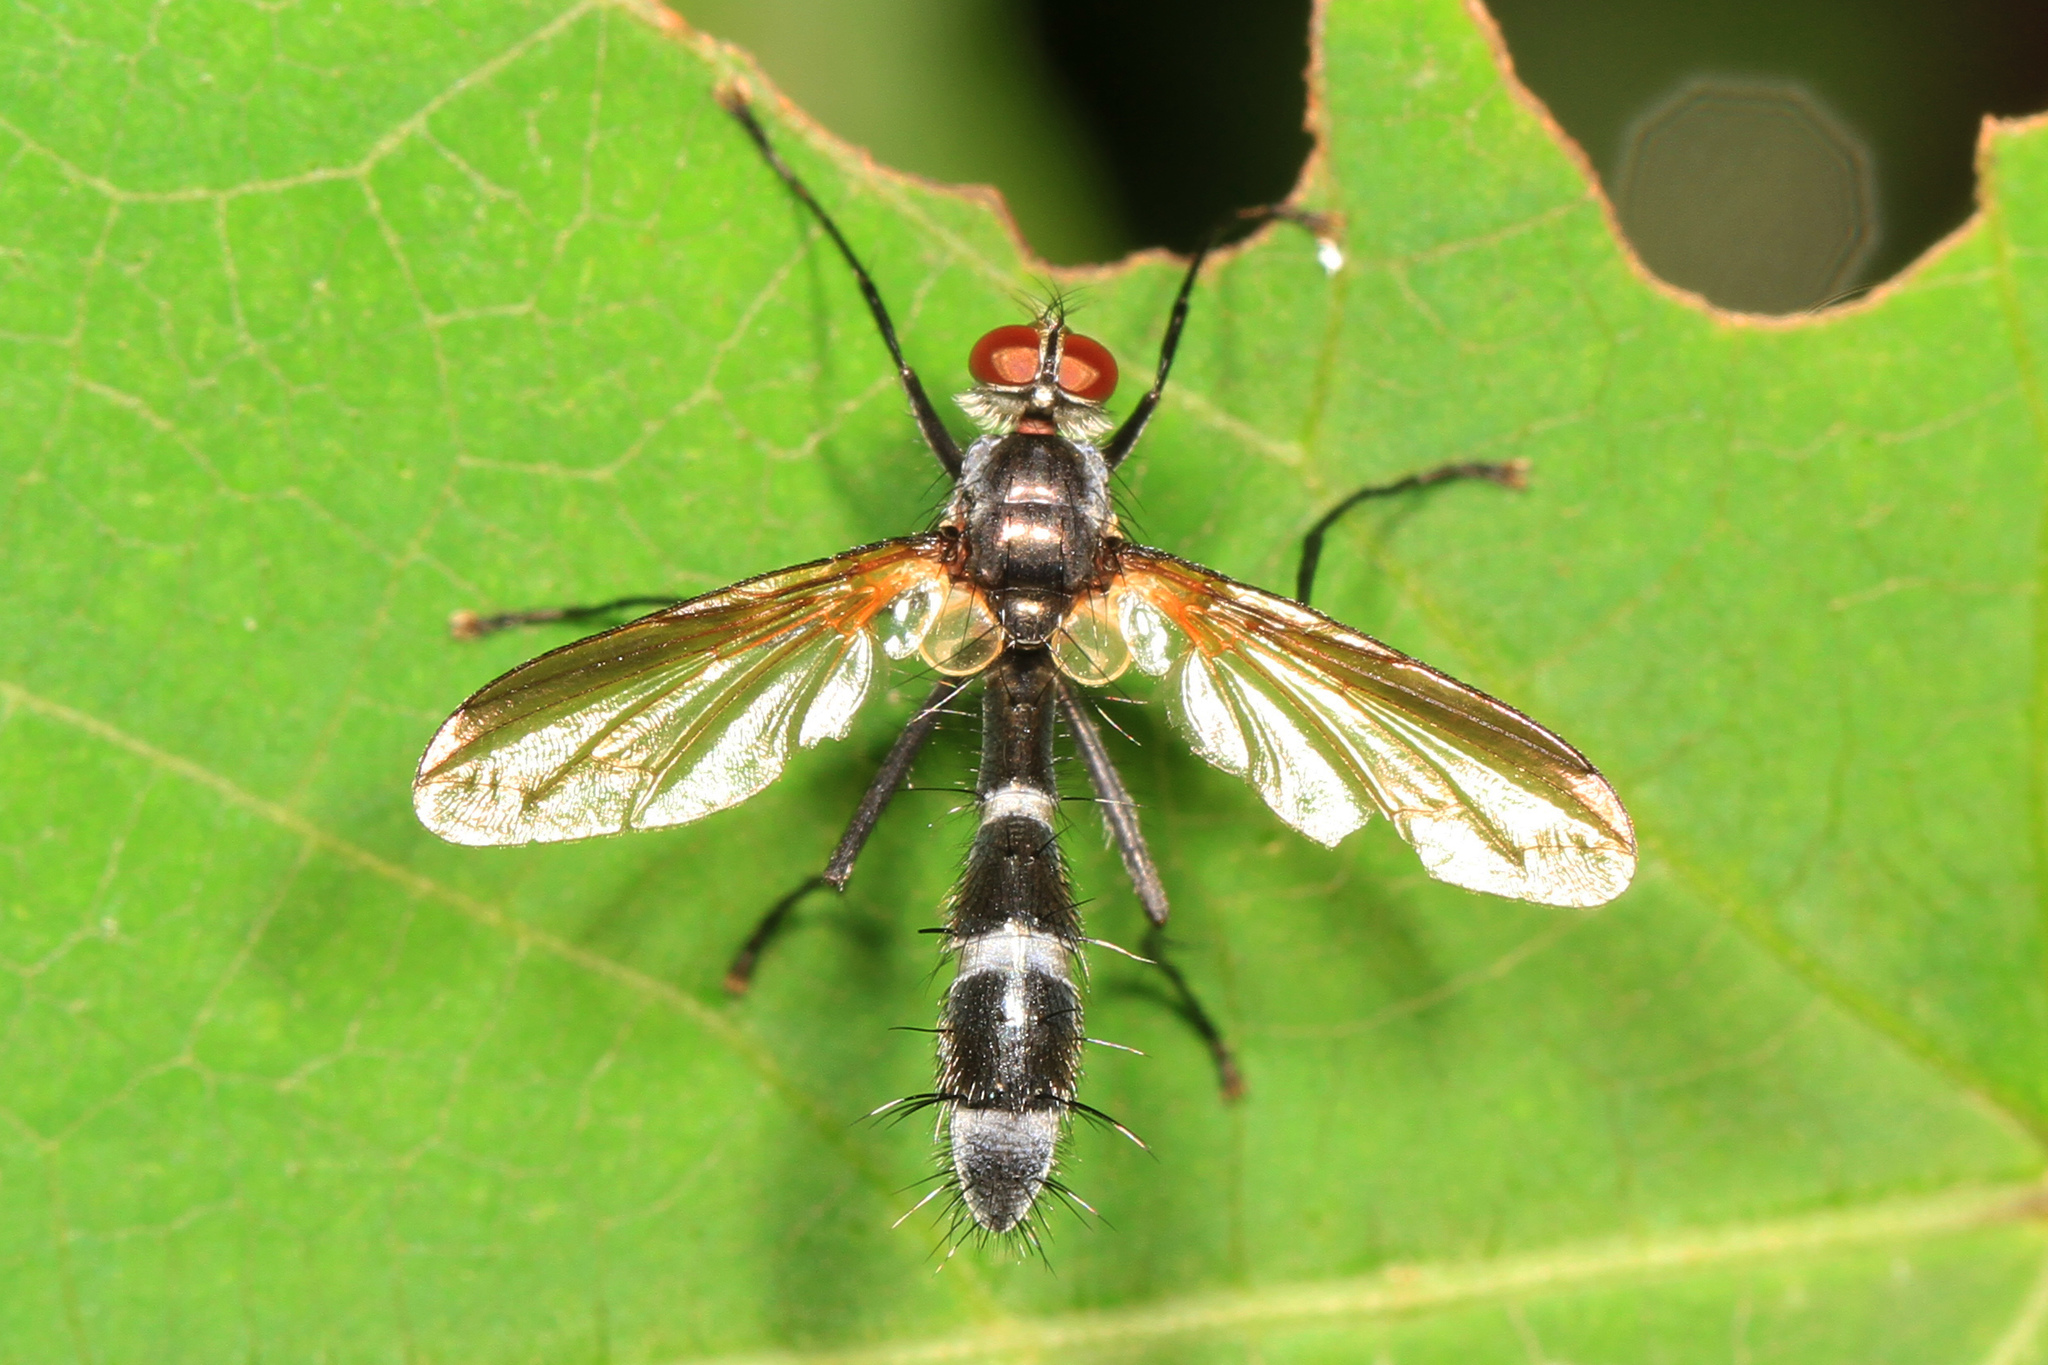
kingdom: Animalia
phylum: Arthropoda
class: Insecta
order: Diptera
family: Tachinidae
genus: Cordyligaster
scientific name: Cordyligaster septentrionalis
